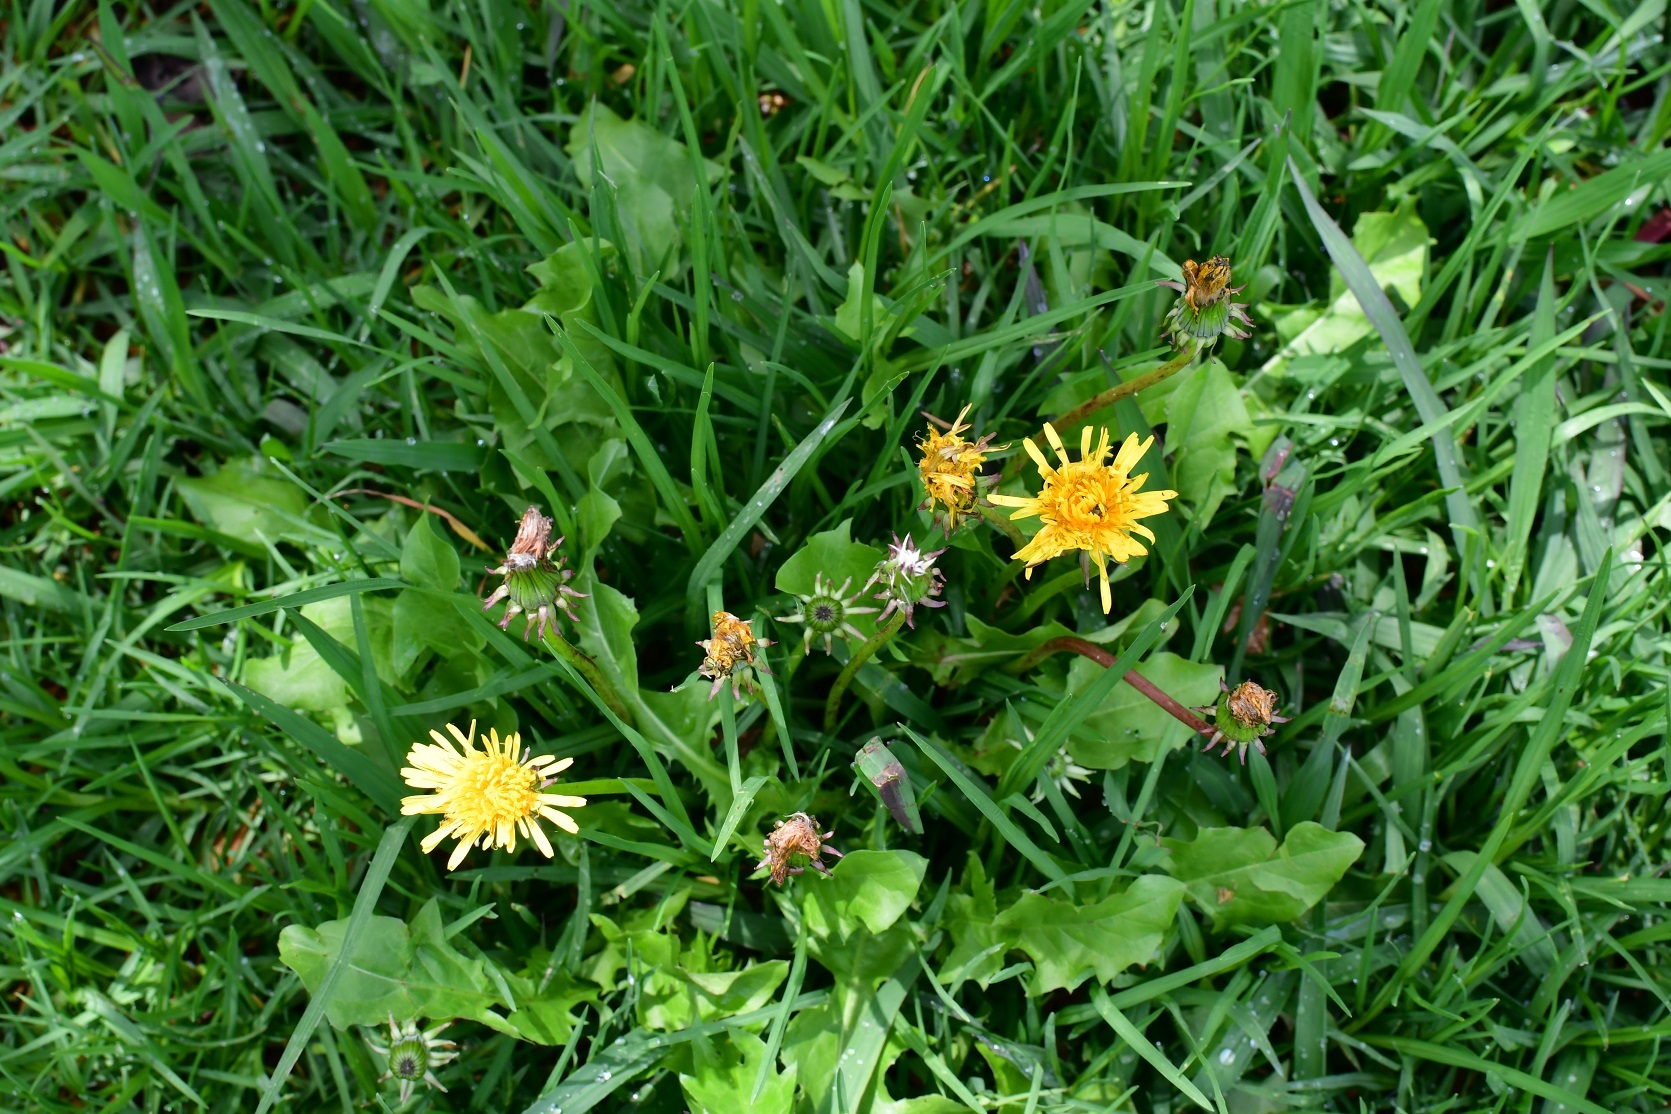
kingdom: Plantae
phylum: Tracheophyta
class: Magnoliopsida
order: Asterales
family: Asteraceae
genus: Taraxacum
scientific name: Taraxacum officinale
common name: Common dandelion
